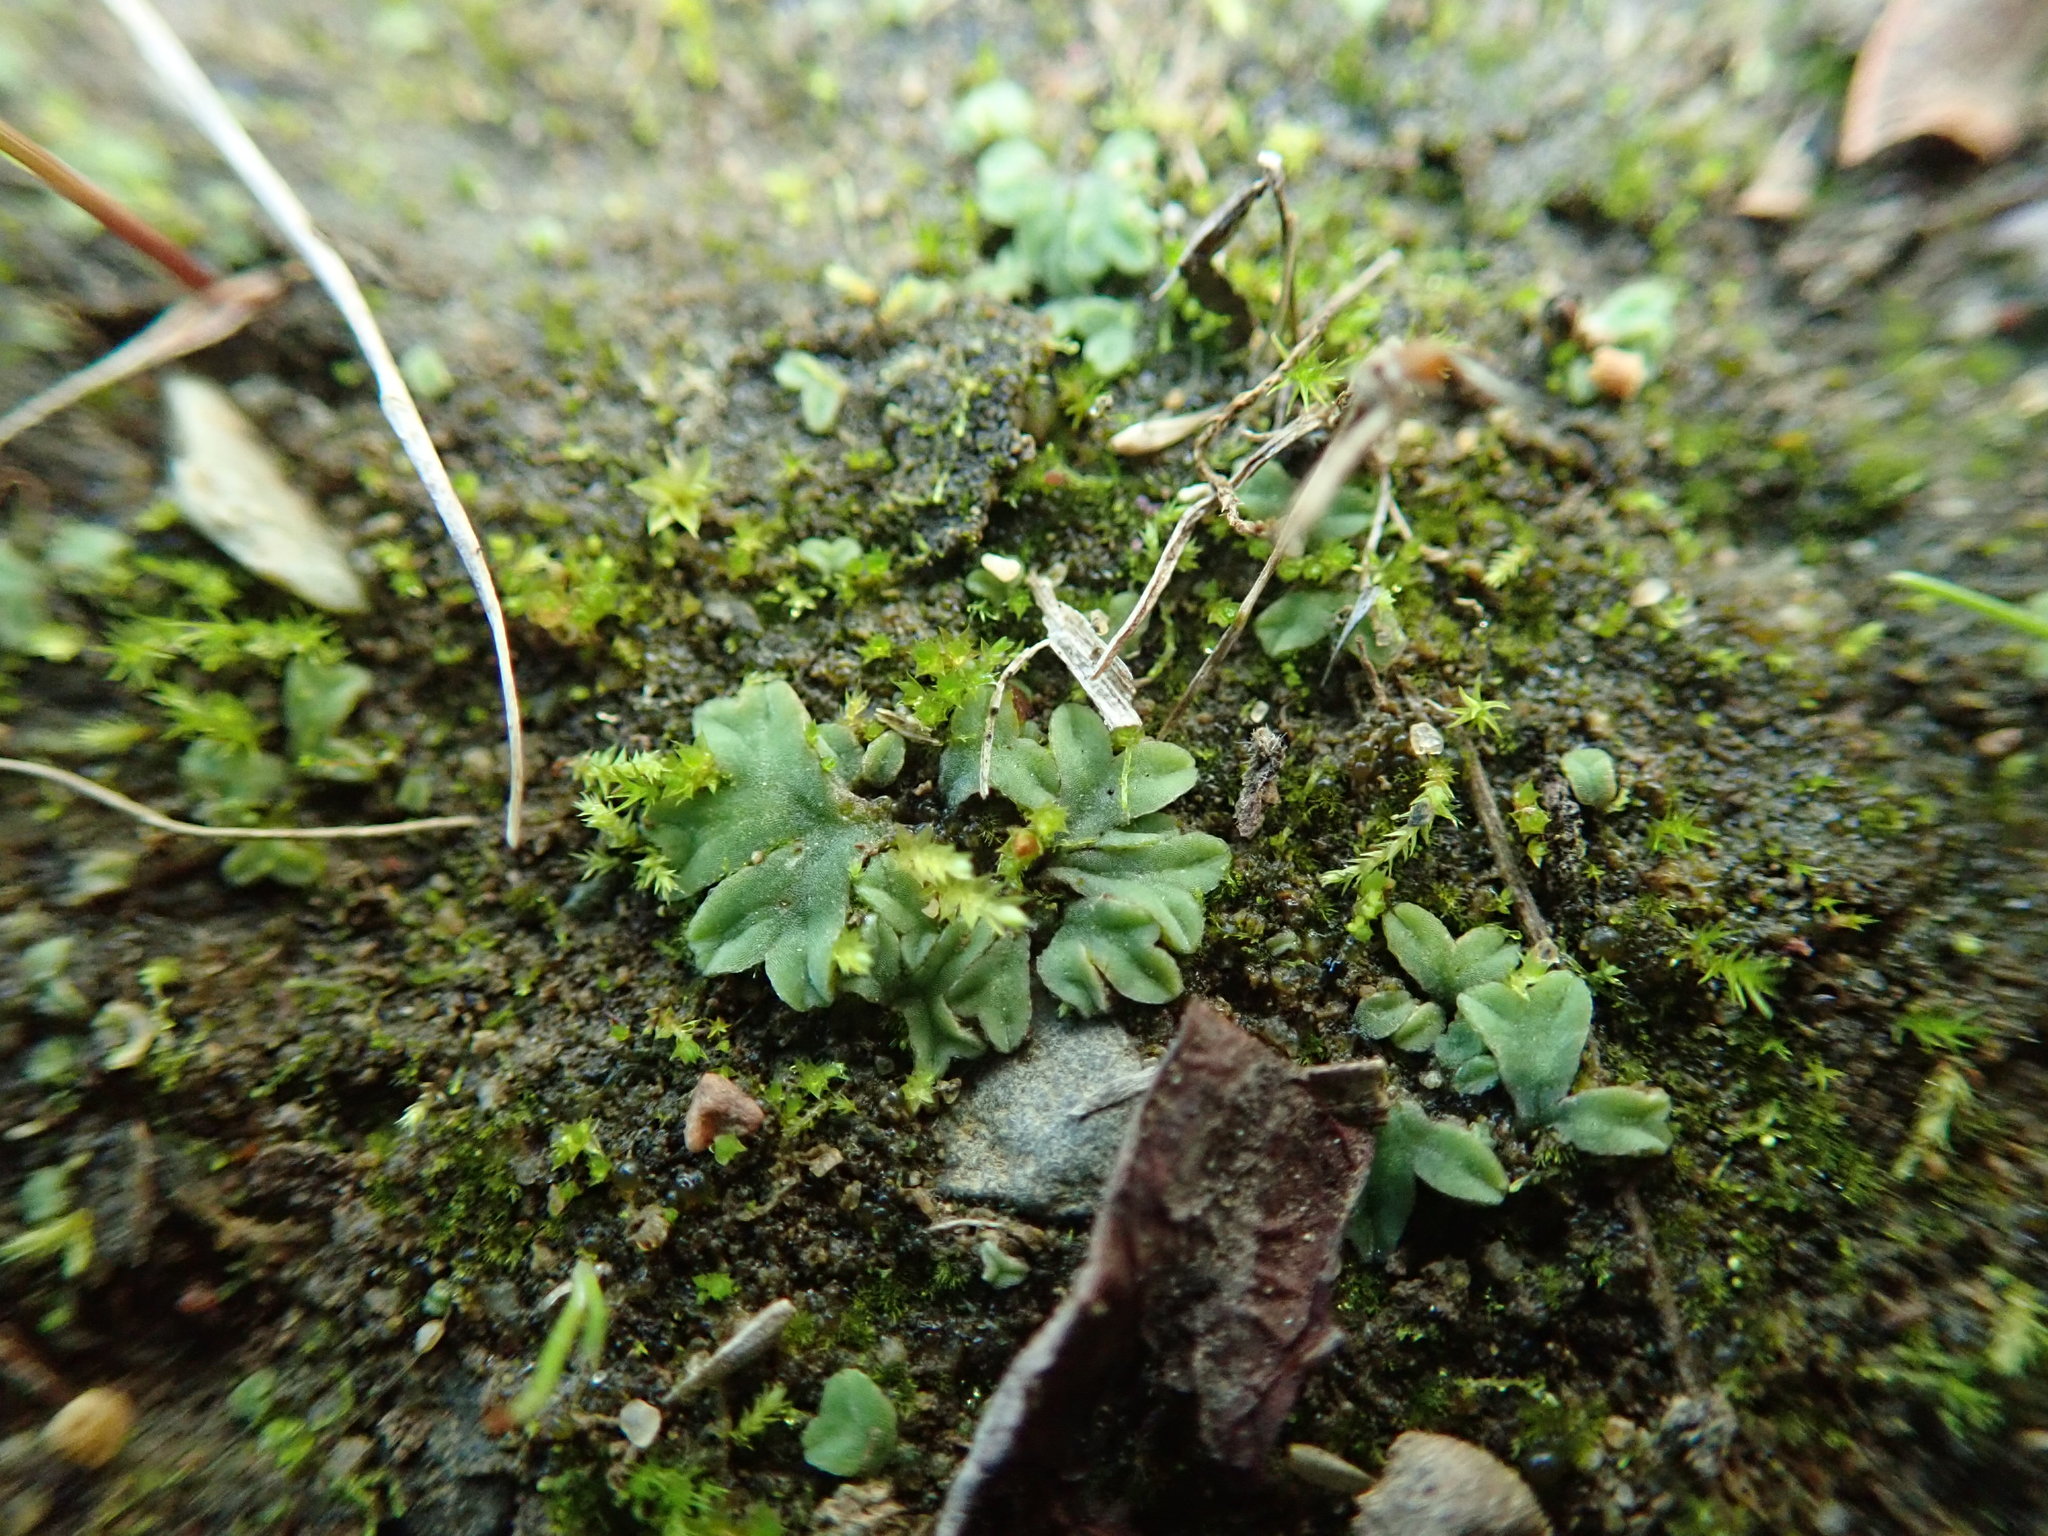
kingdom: Plantae
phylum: Marchantiophyta
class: Marchantiopsida
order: Marchantiales
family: Ricciaceae
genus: Riccia
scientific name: Riccia sorocarpa
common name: Common crystalwort
